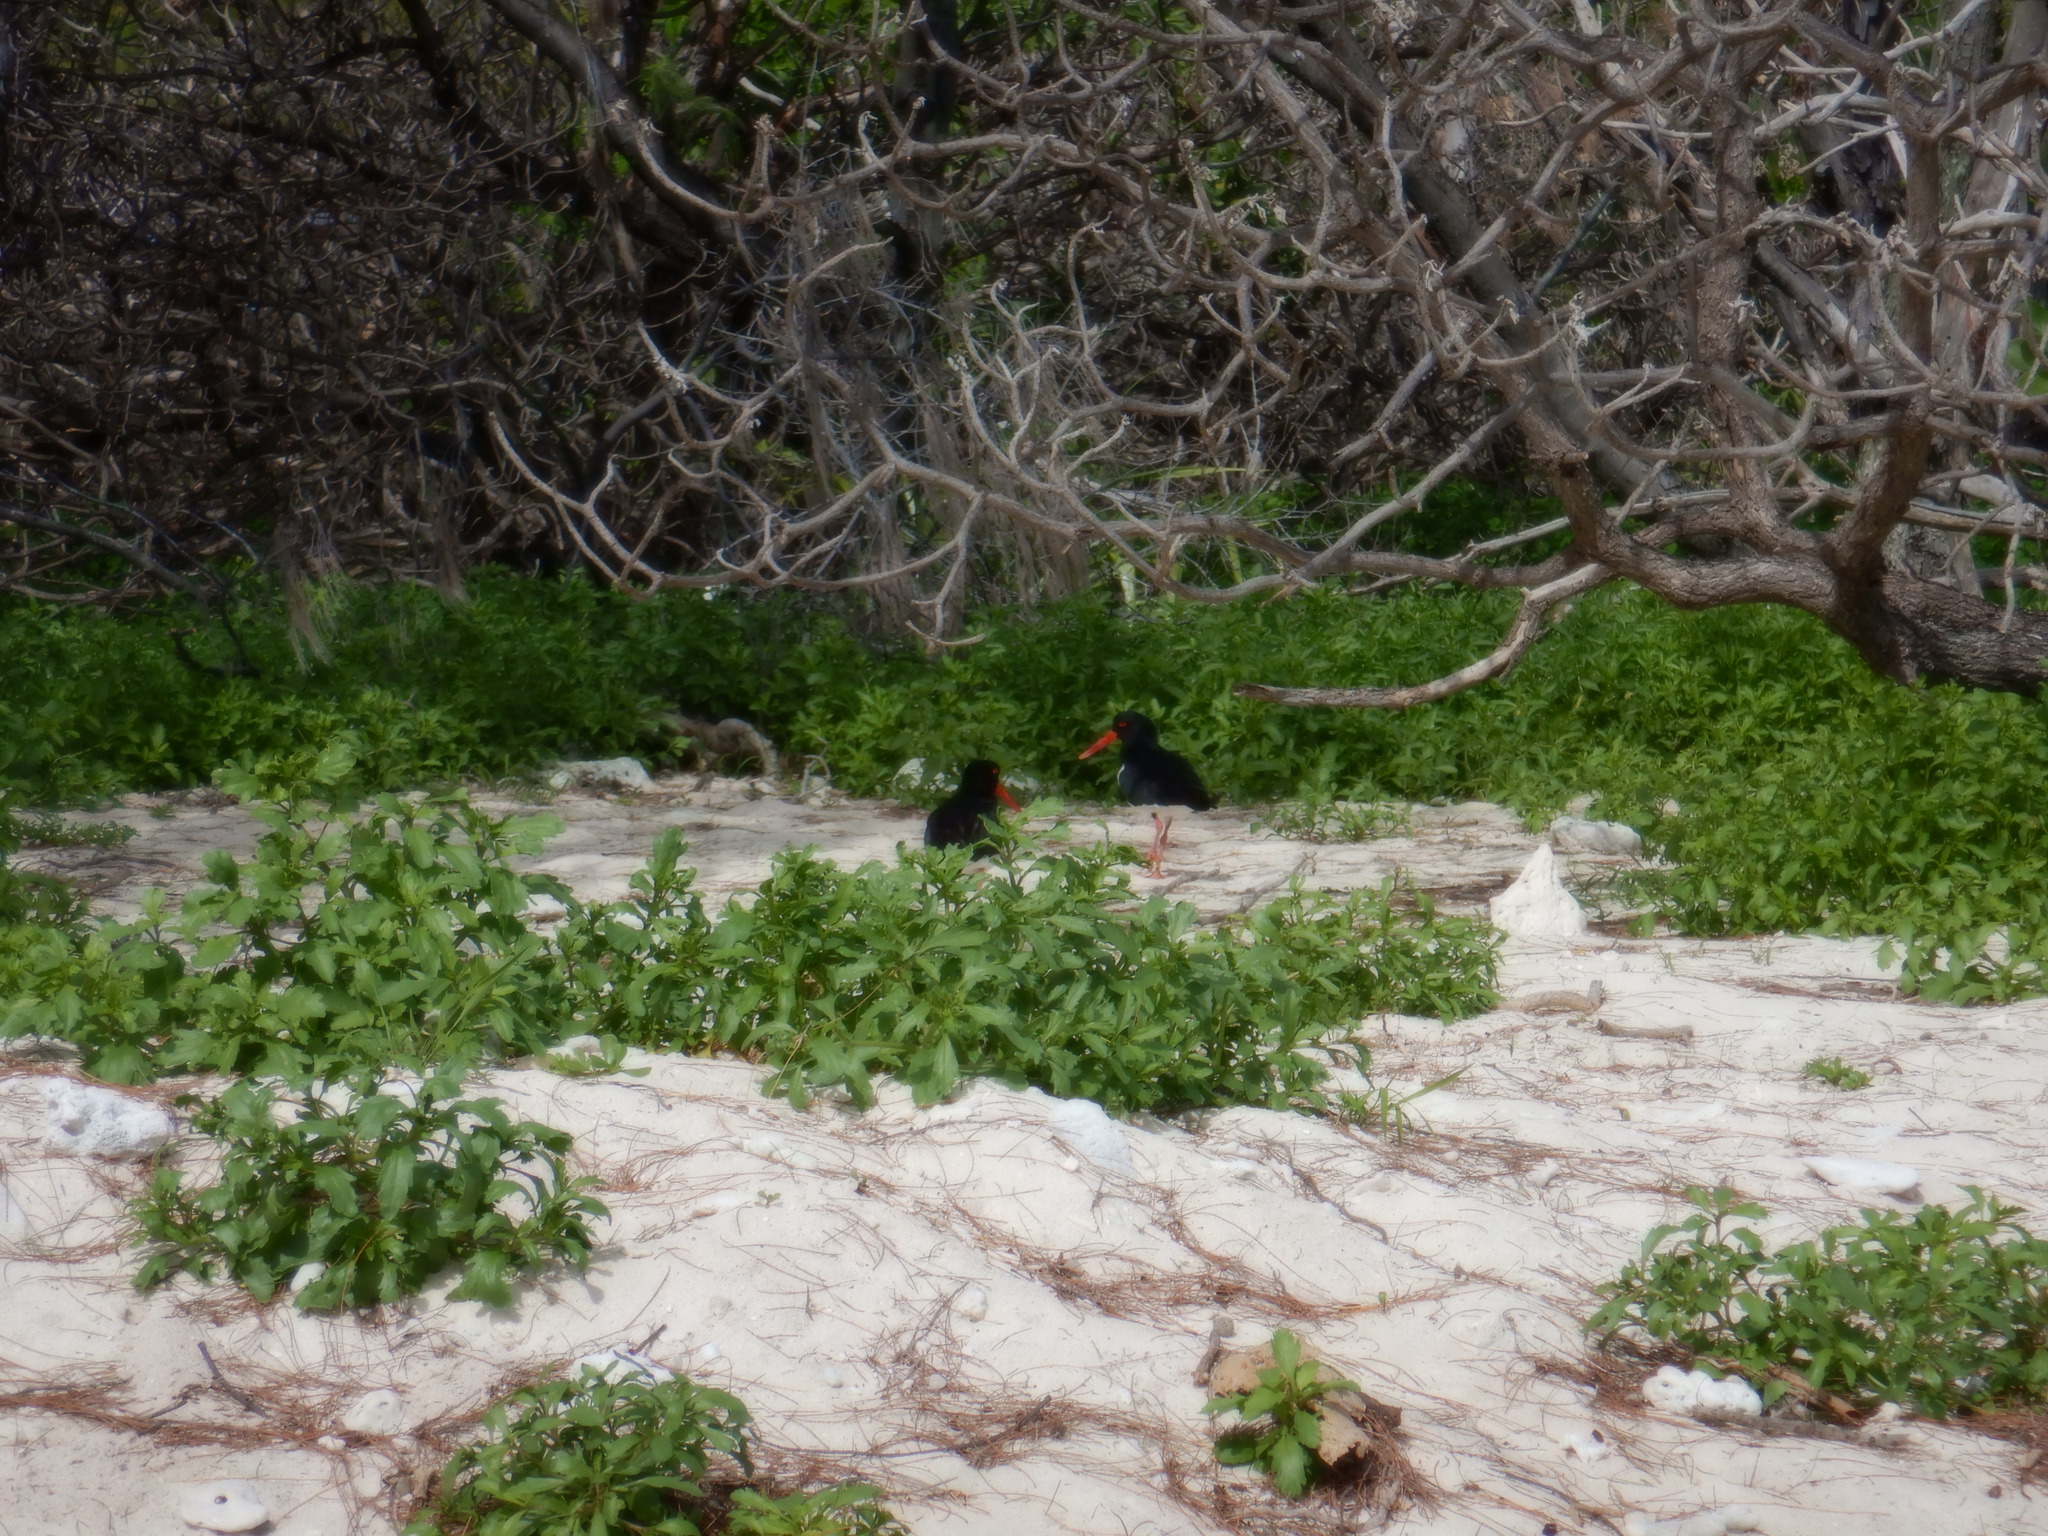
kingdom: Animalia
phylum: Chordata
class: Aves
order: Charadriiformes
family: Haematopodidae
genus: Haematopus
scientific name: Haematopus longirostris
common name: Pied oystercatcher
